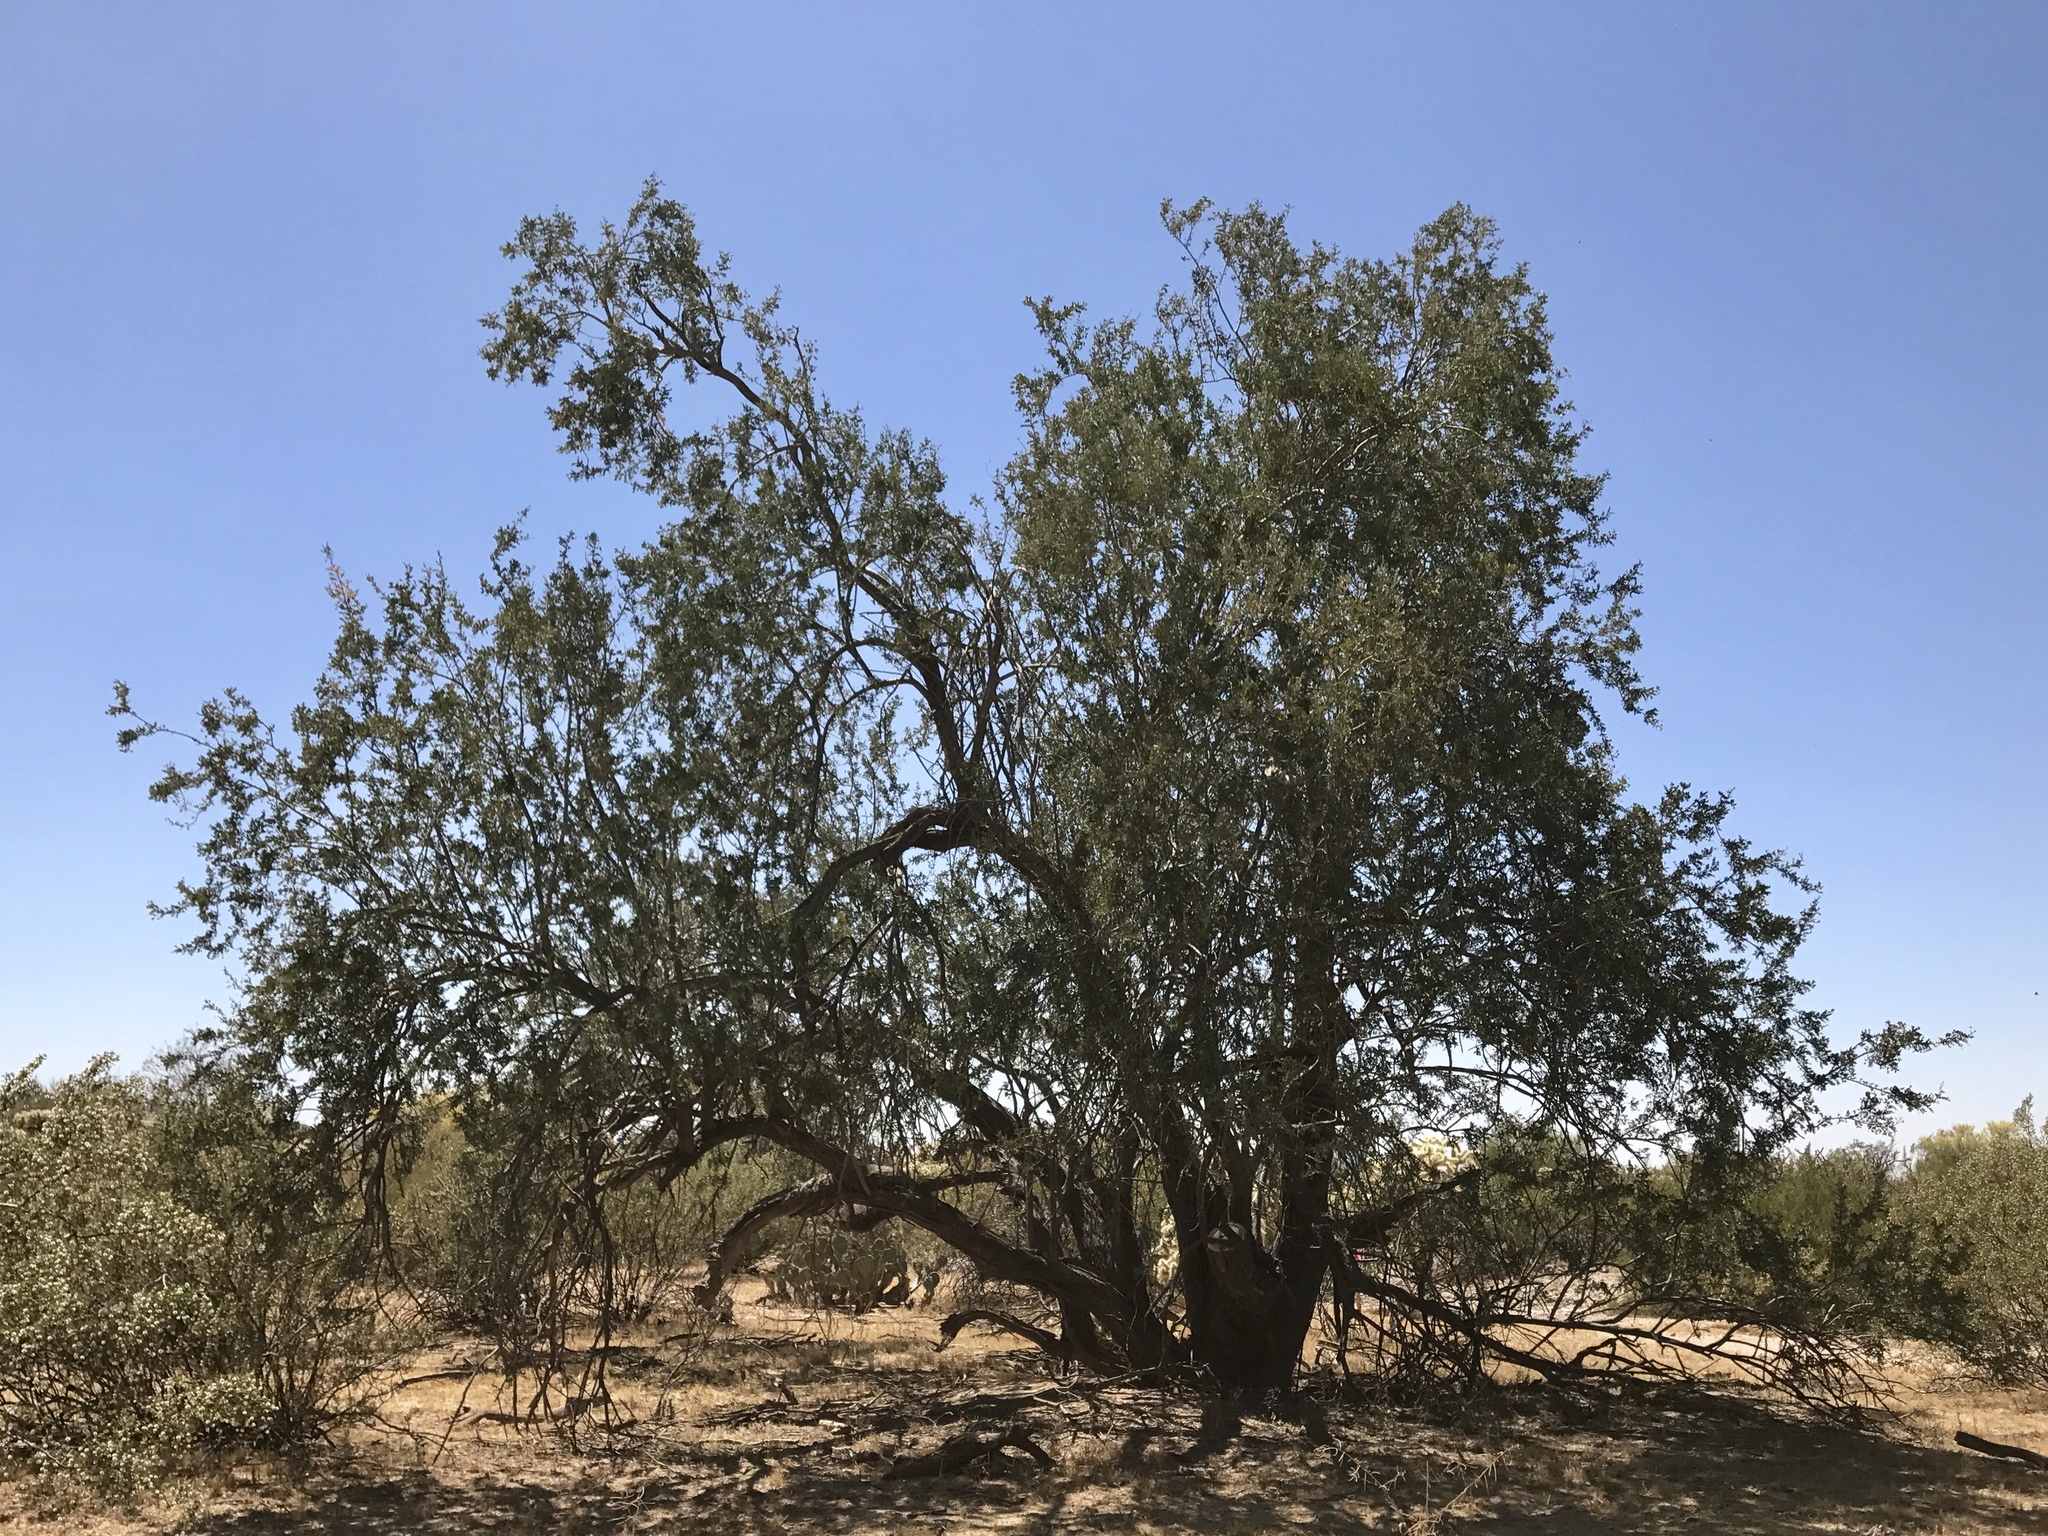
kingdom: Plantae
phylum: Tracheophyta
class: Magnoliopsida
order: Fabales
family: Fabaceae
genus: Olneya
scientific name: Olneya tesota
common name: Desert ironwood
